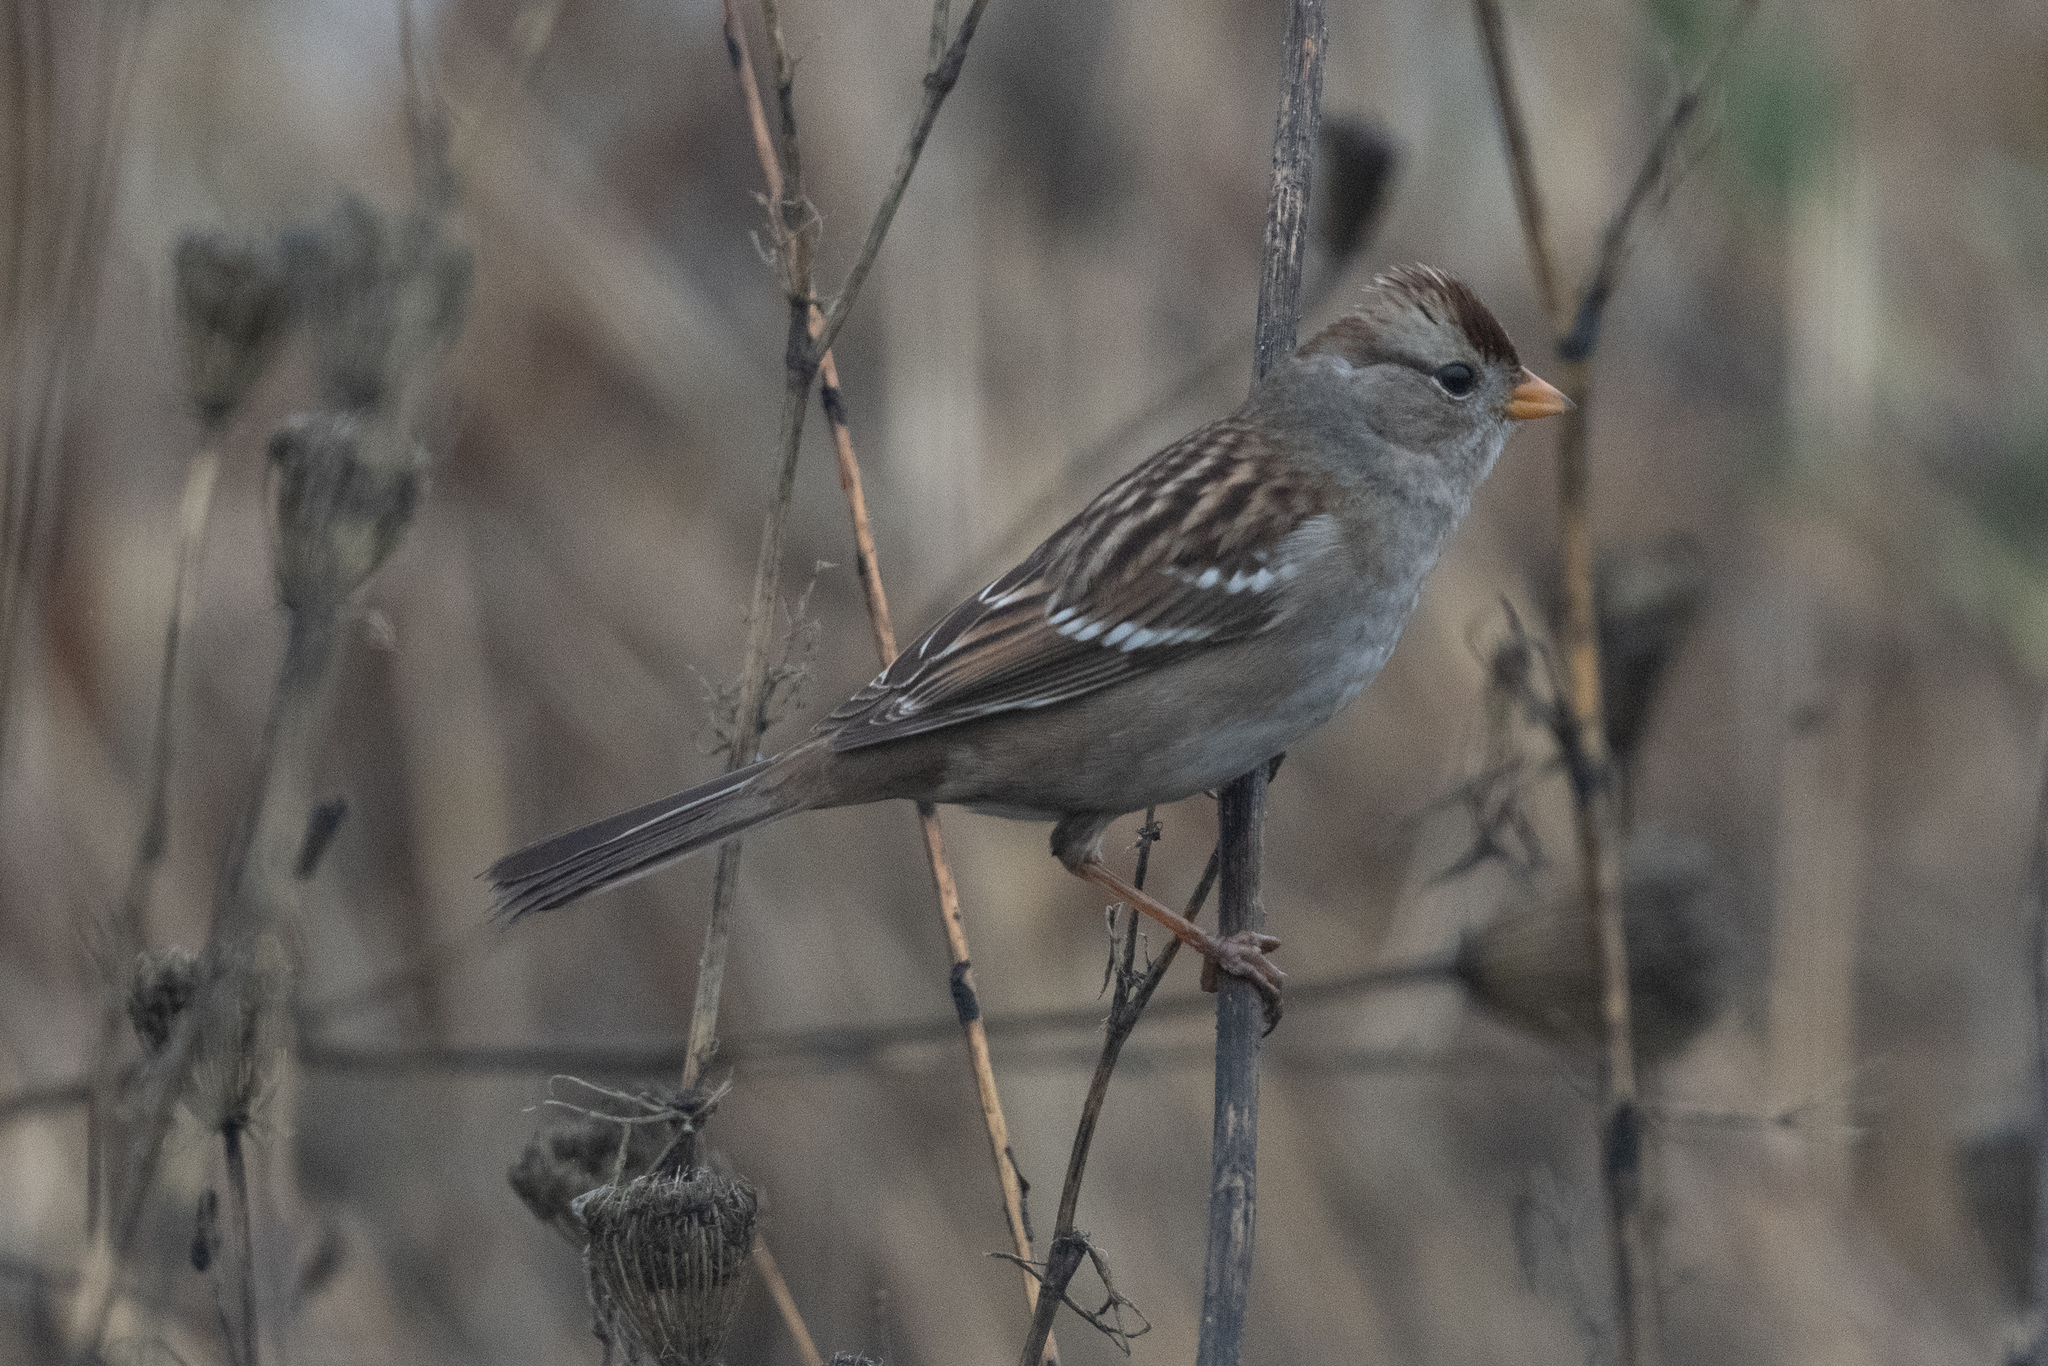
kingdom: Animalia
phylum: Chordata
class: Aves
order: Passeriformes
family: Passerellidae
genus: Zonotrichia
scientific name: Zonotrichia leucophrys
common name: White-crowned sparrow
